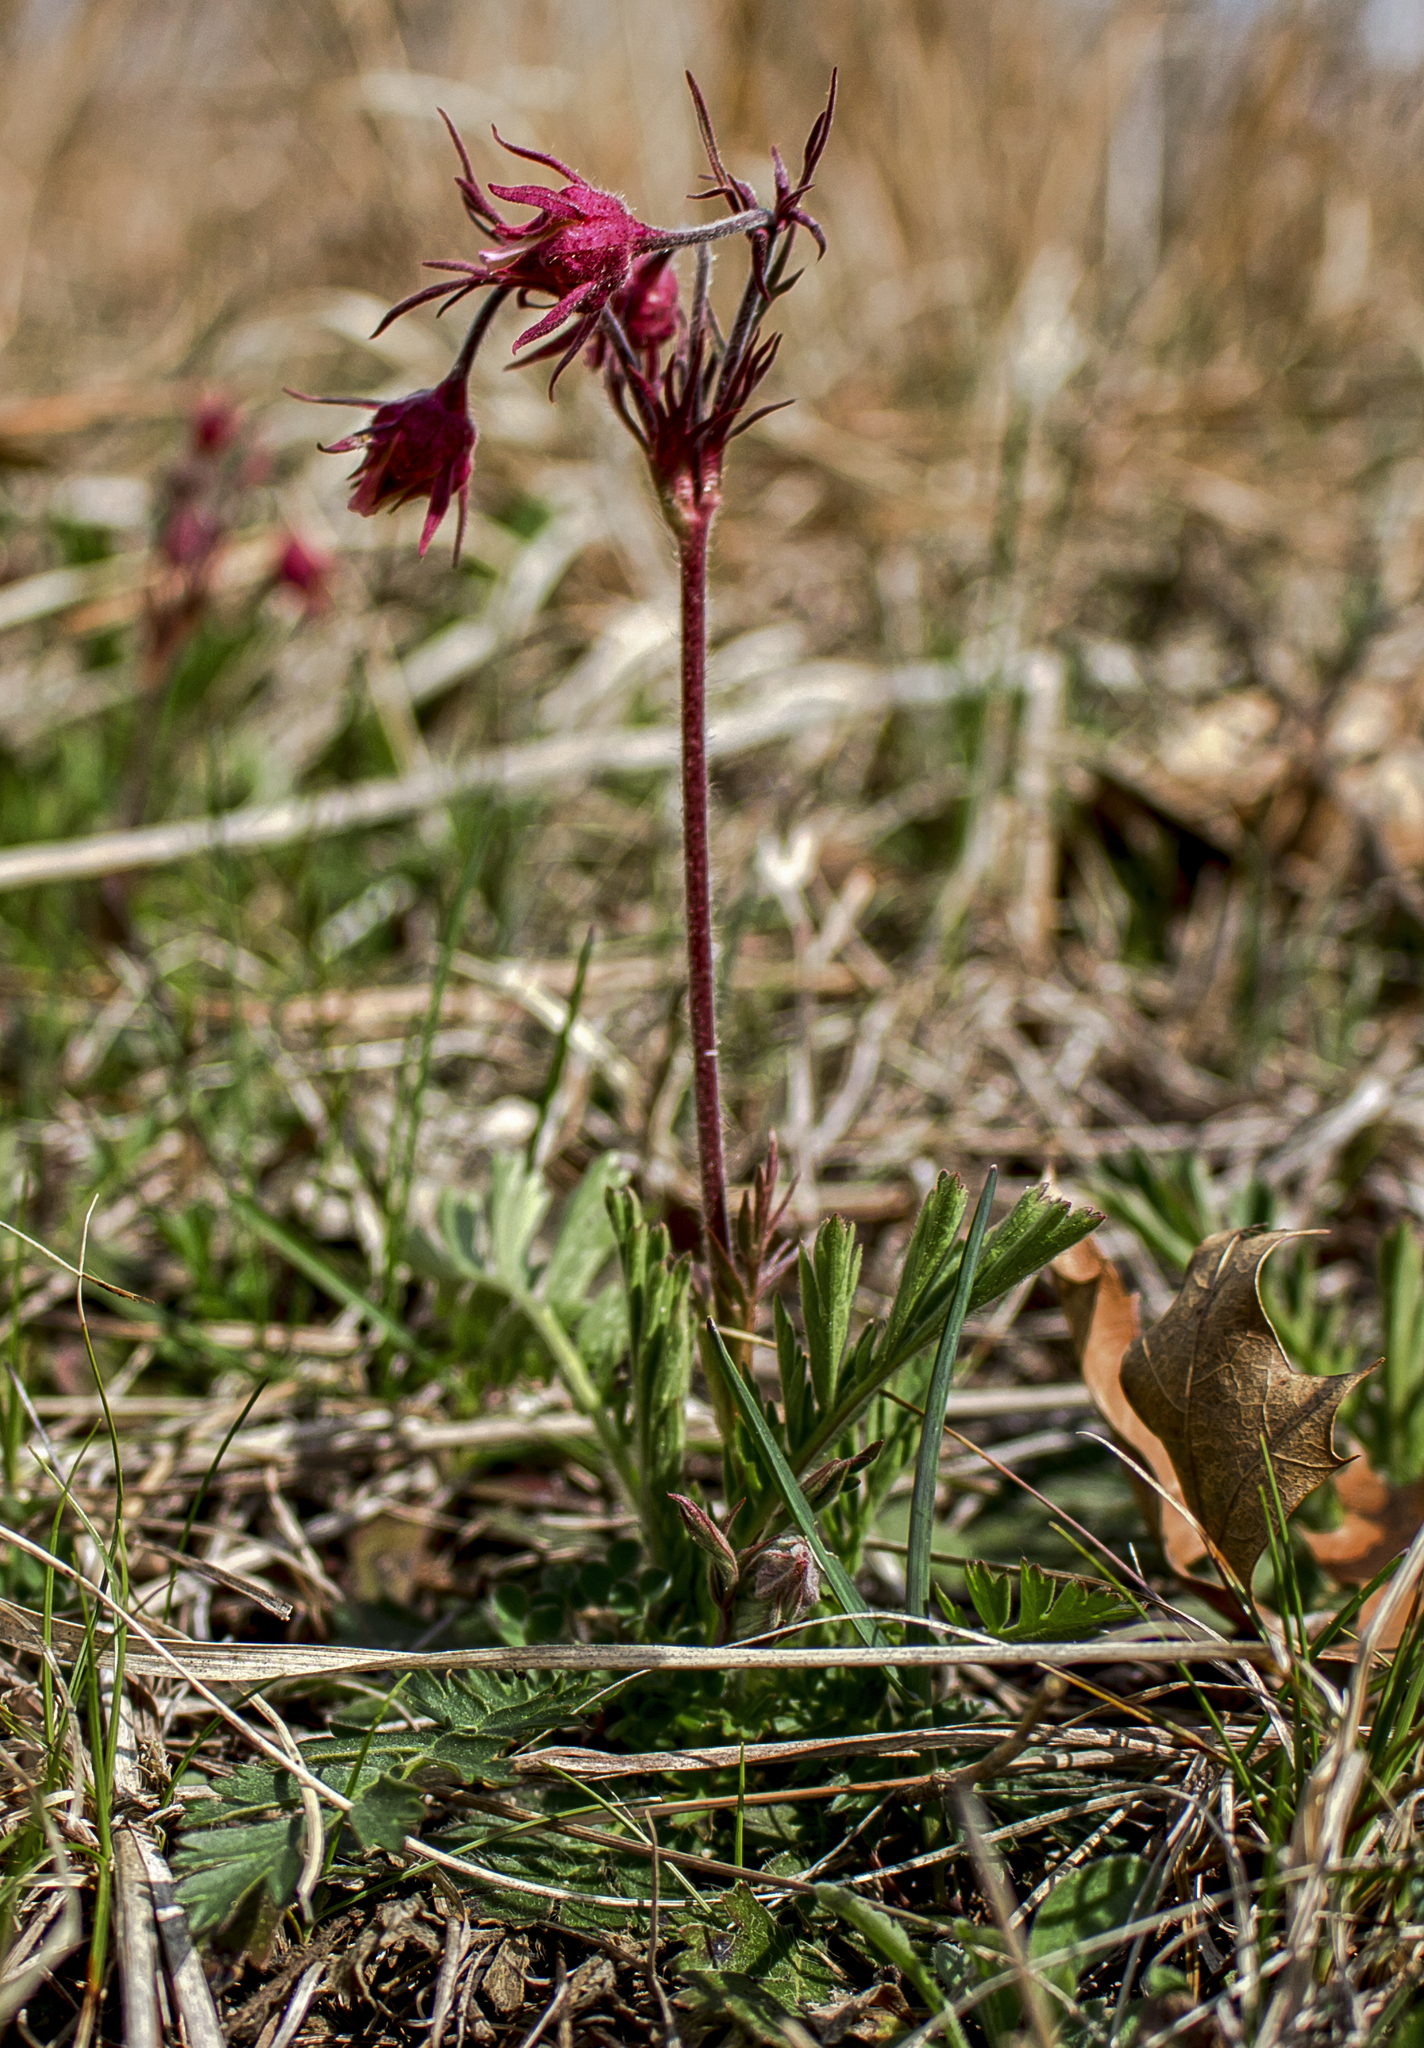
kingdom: Plantae
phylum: Tracheophyta
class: Magnoliopsida
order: Rosales
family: Rosaceae
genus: Geum
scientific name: Geum triflorum
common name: Old man's whiskers
